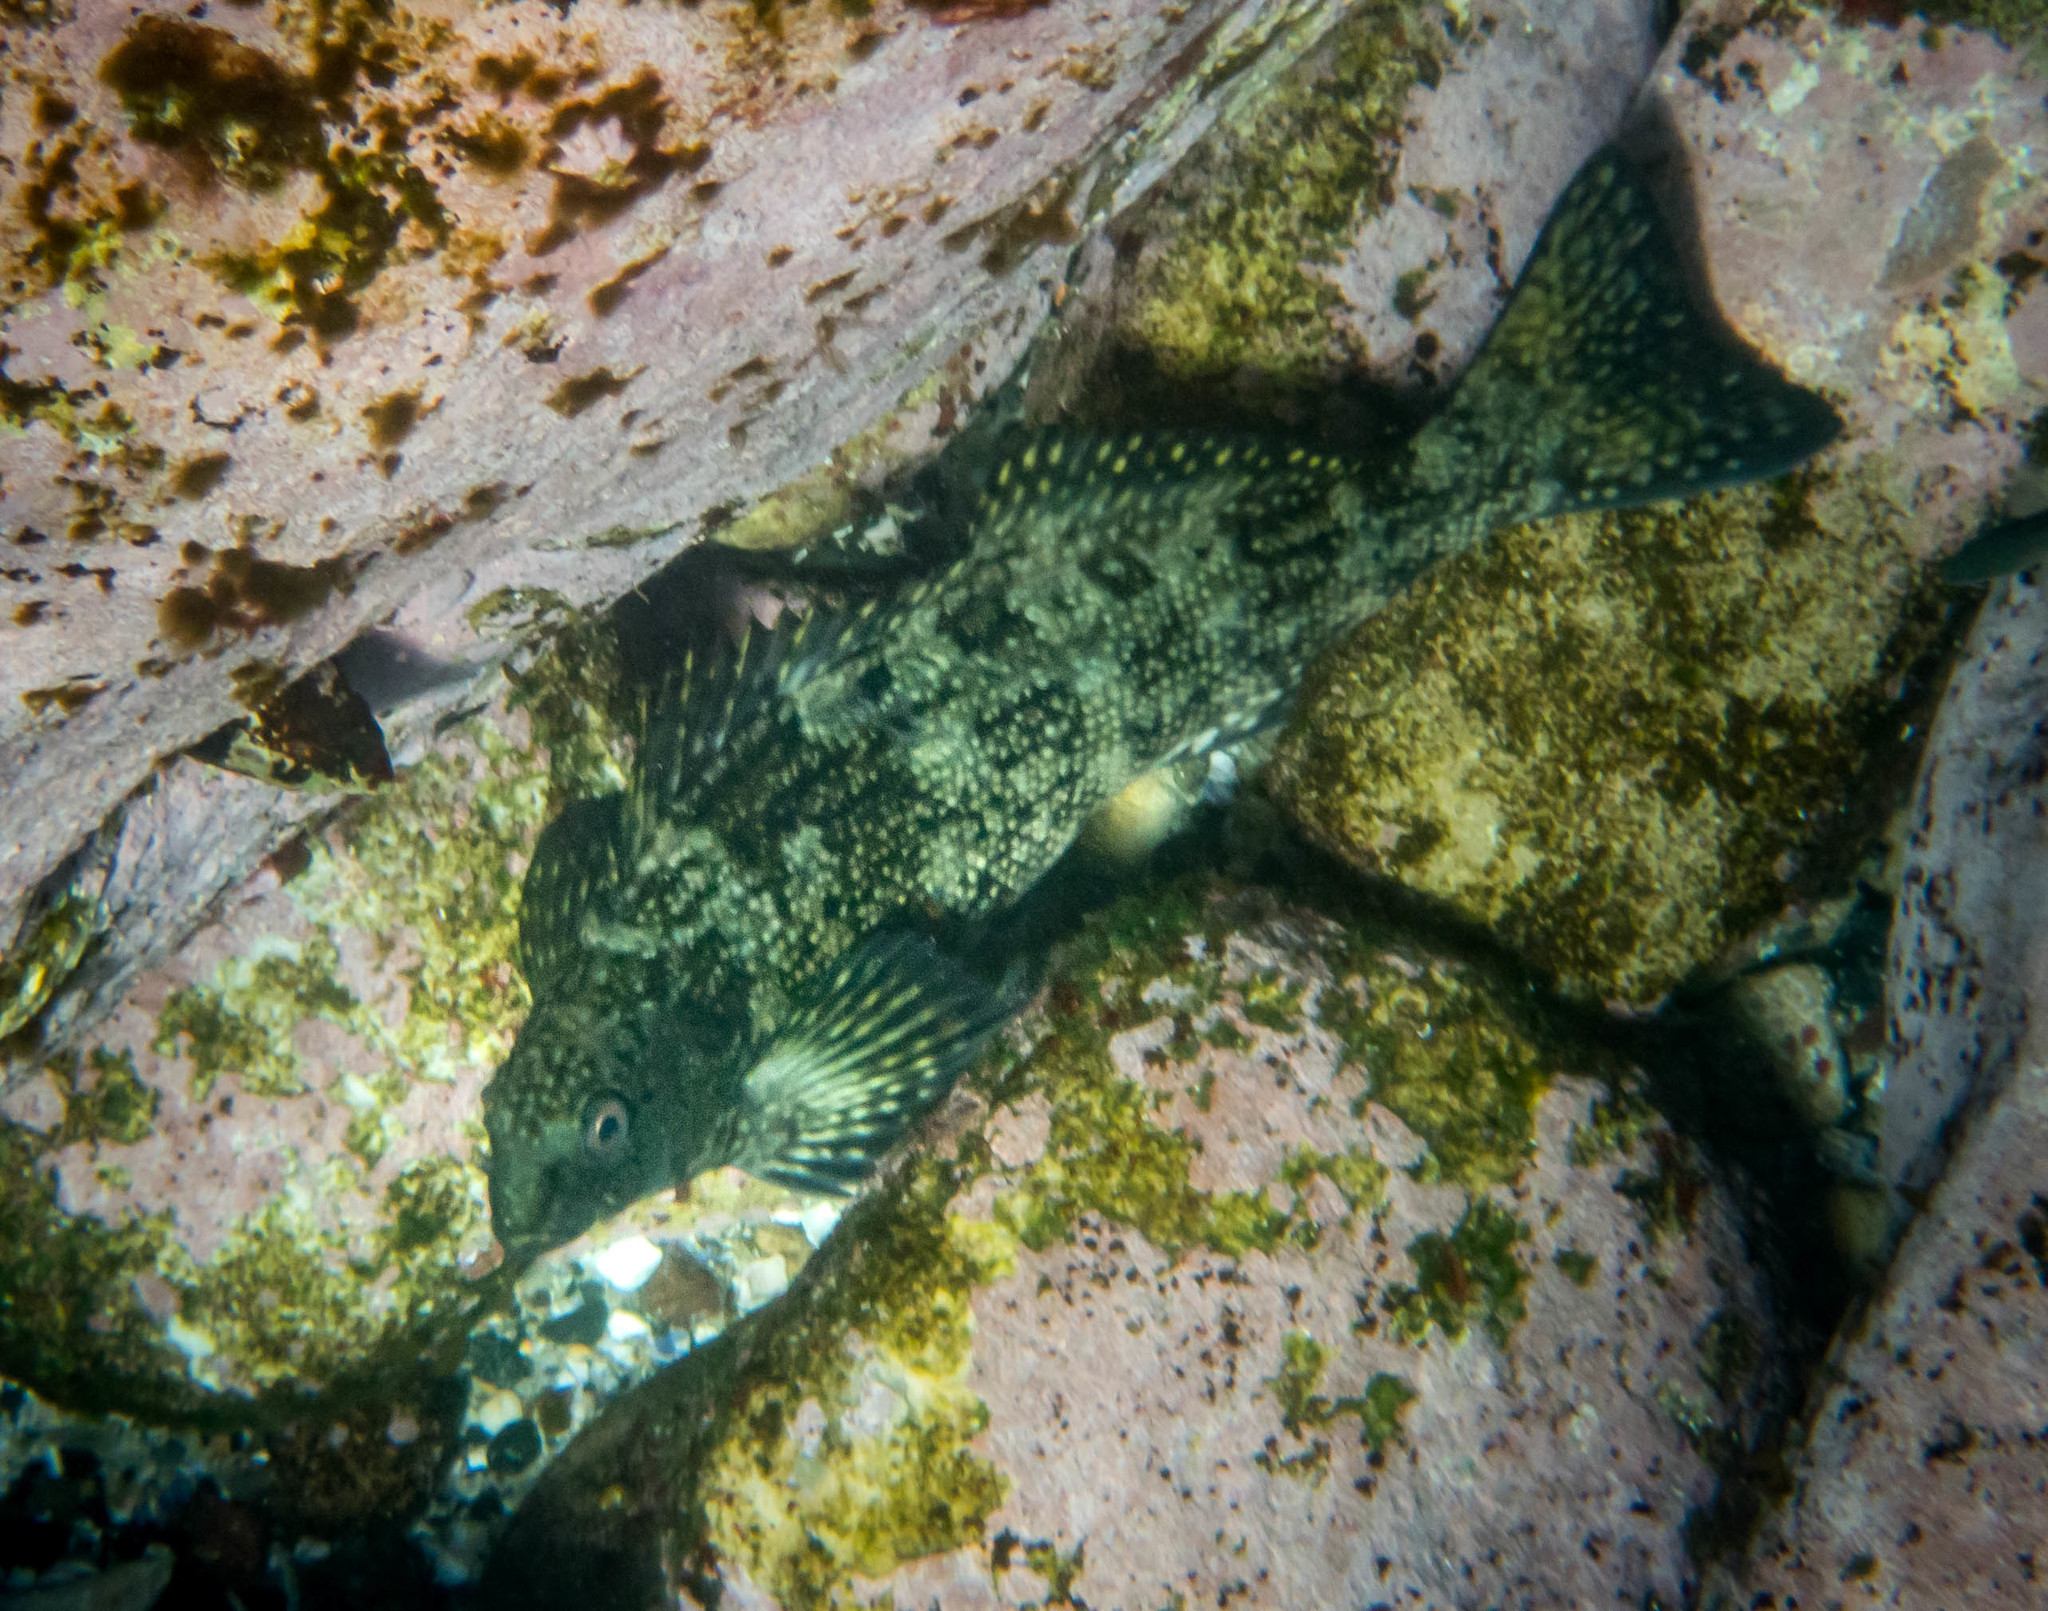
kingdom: Animalia
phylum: Chordata
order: Perciformes
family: Aplodactylidae
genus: Aplodactylus
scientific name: Aplodactylus lophodon
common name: Cockatoo fish
